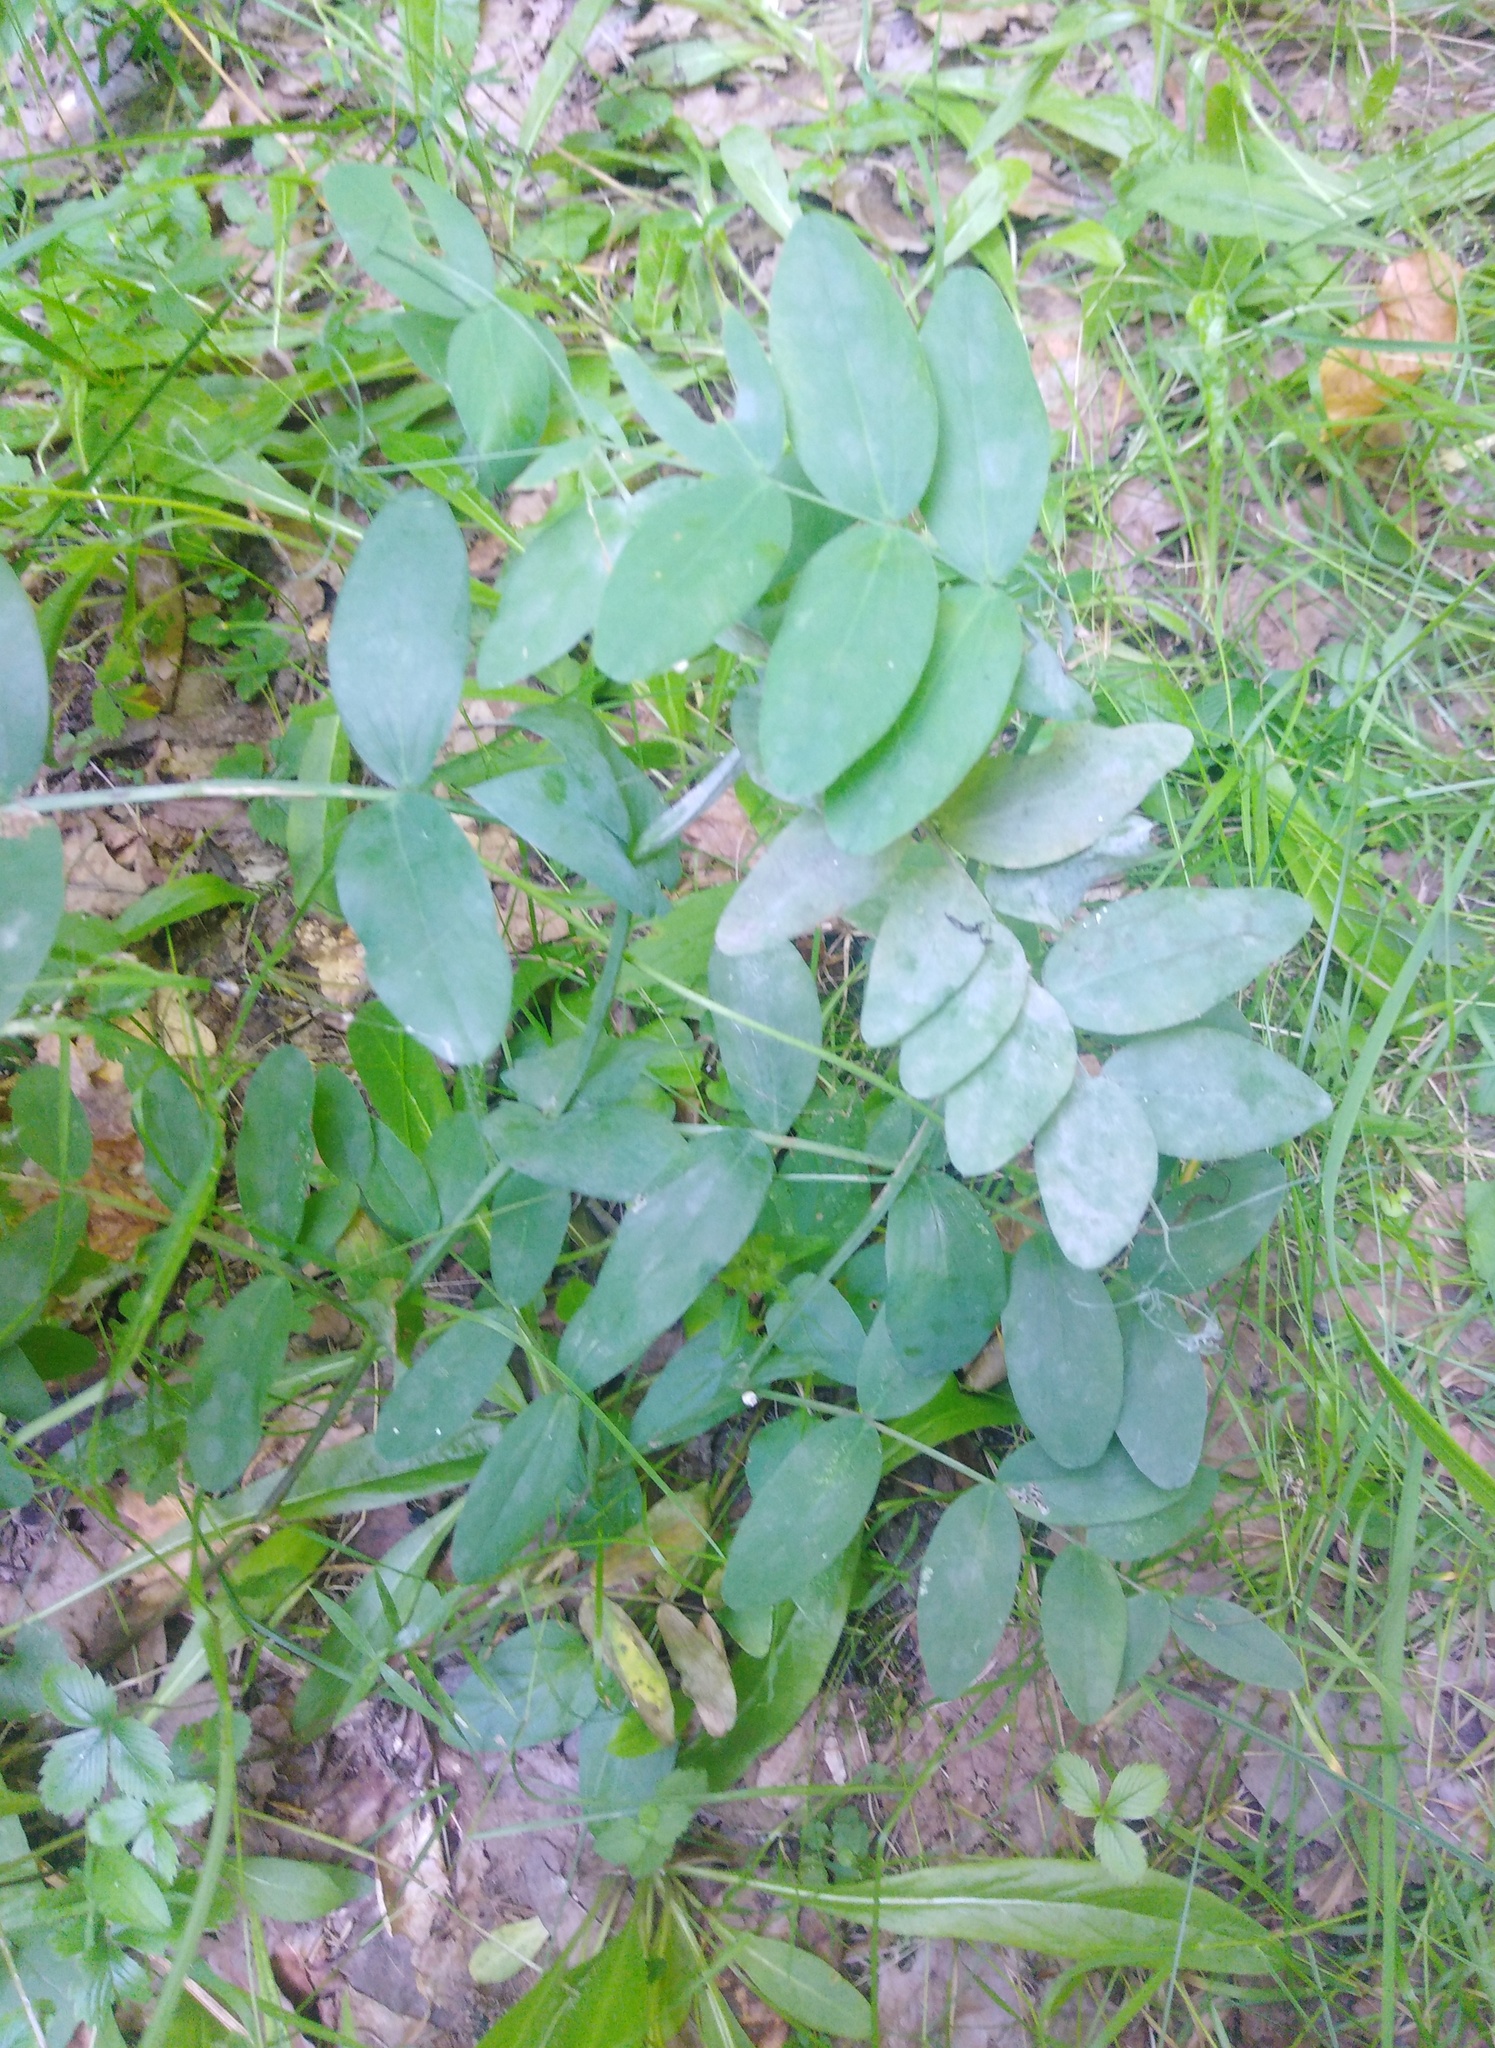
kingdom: Plantae
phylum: Tracheophyta
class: Magnoliopsida
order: Fabales
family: Fabaceae
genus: Lathyrus
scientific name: Lathyrus pisiformis
